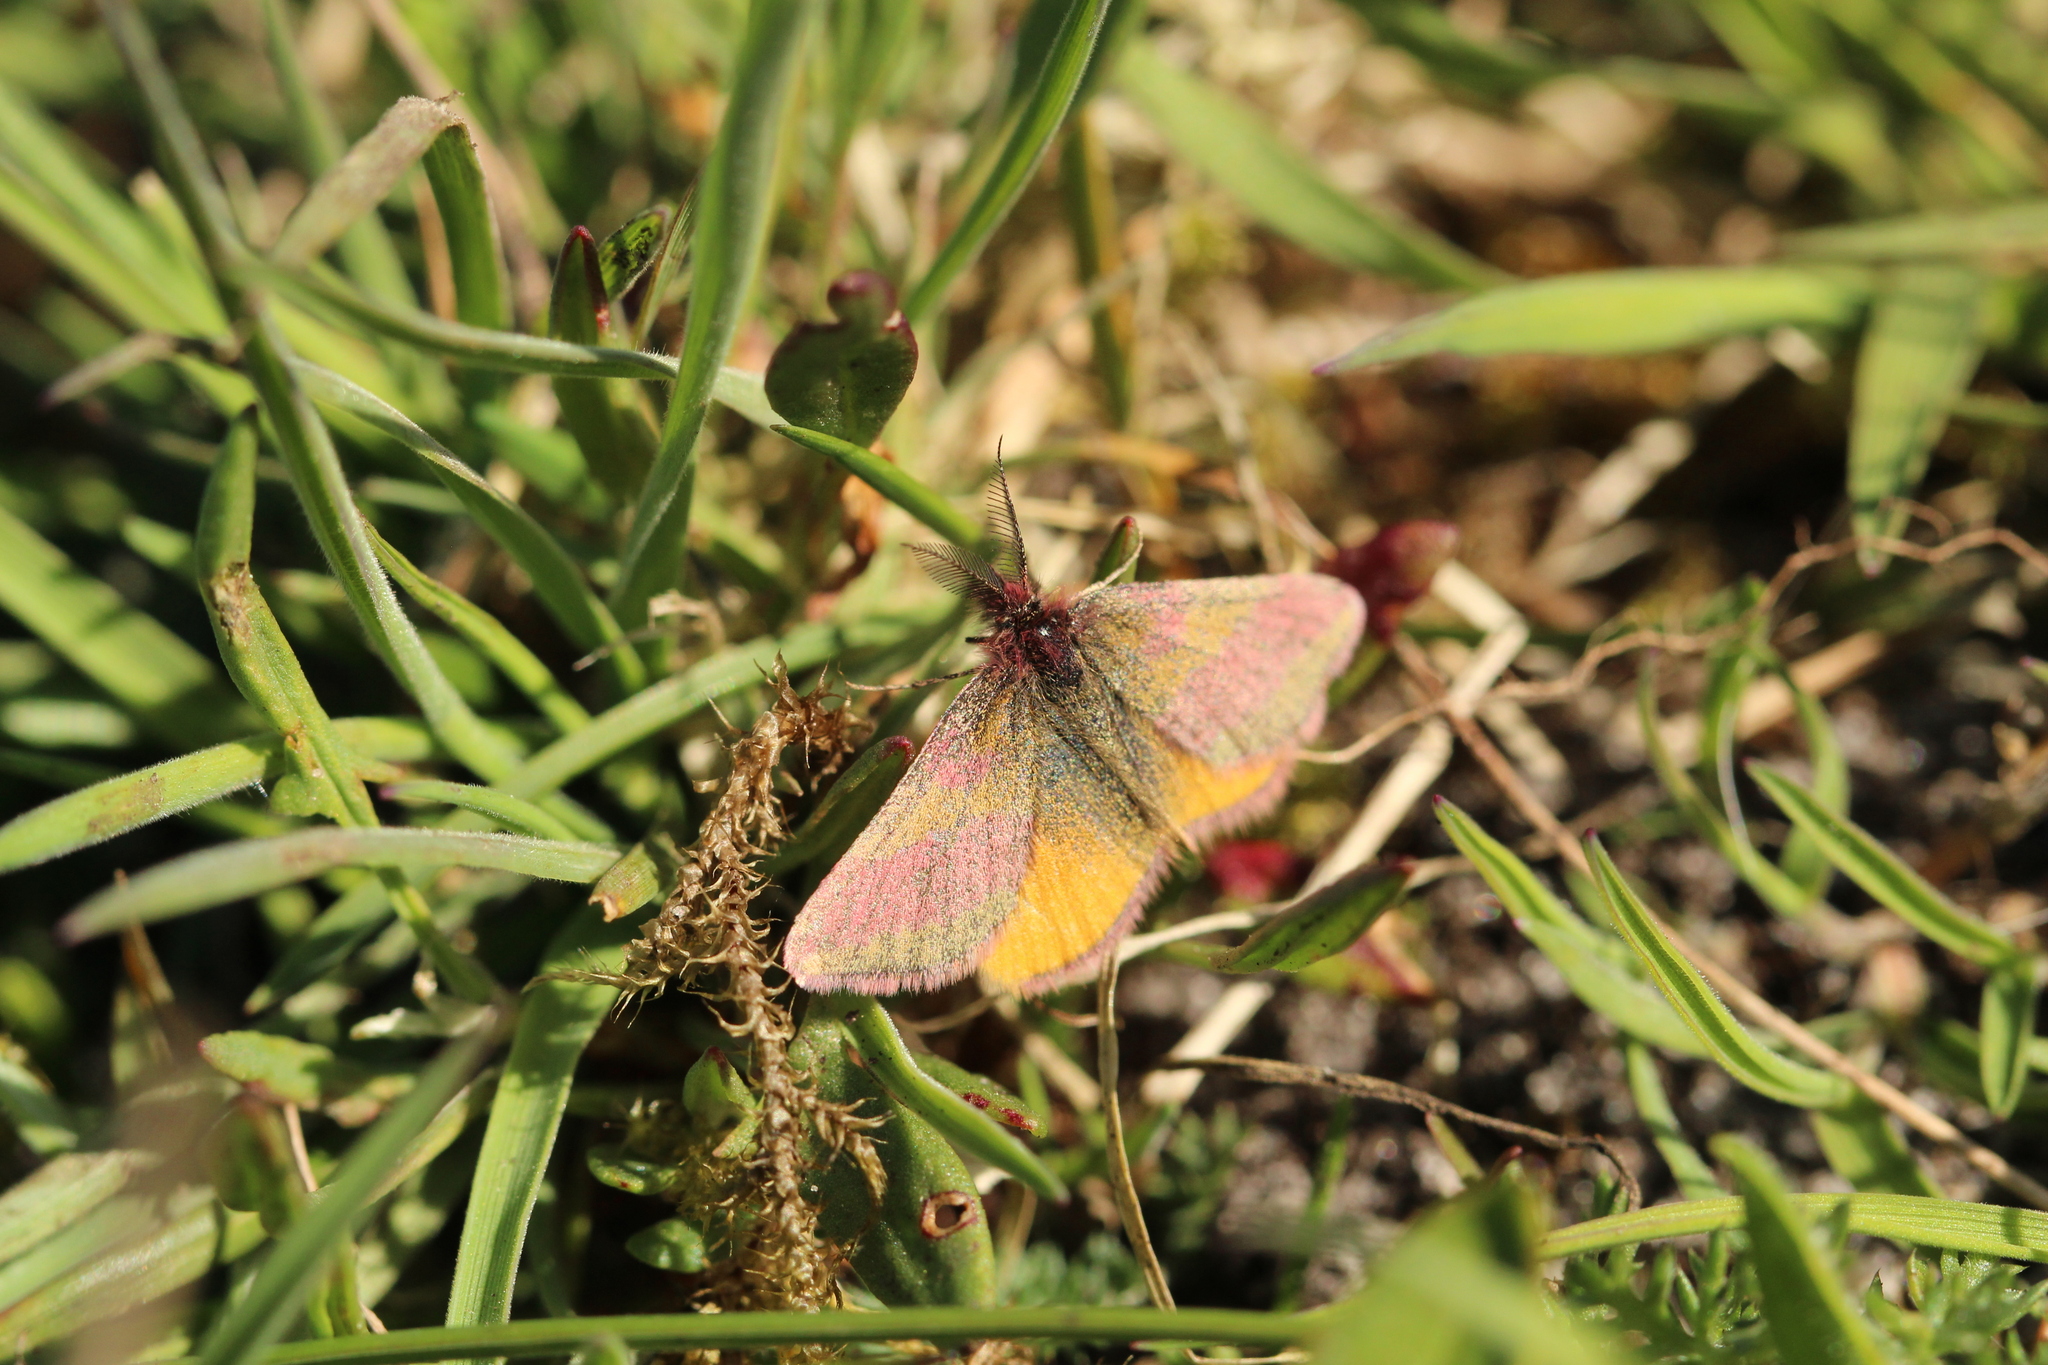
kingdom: Animalia
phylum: Arthropoda
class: Insecta
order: Lepidoptera
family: Geometridae
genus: Lythria
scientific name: Lythria cruentaria
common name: Purple-barred yellow
